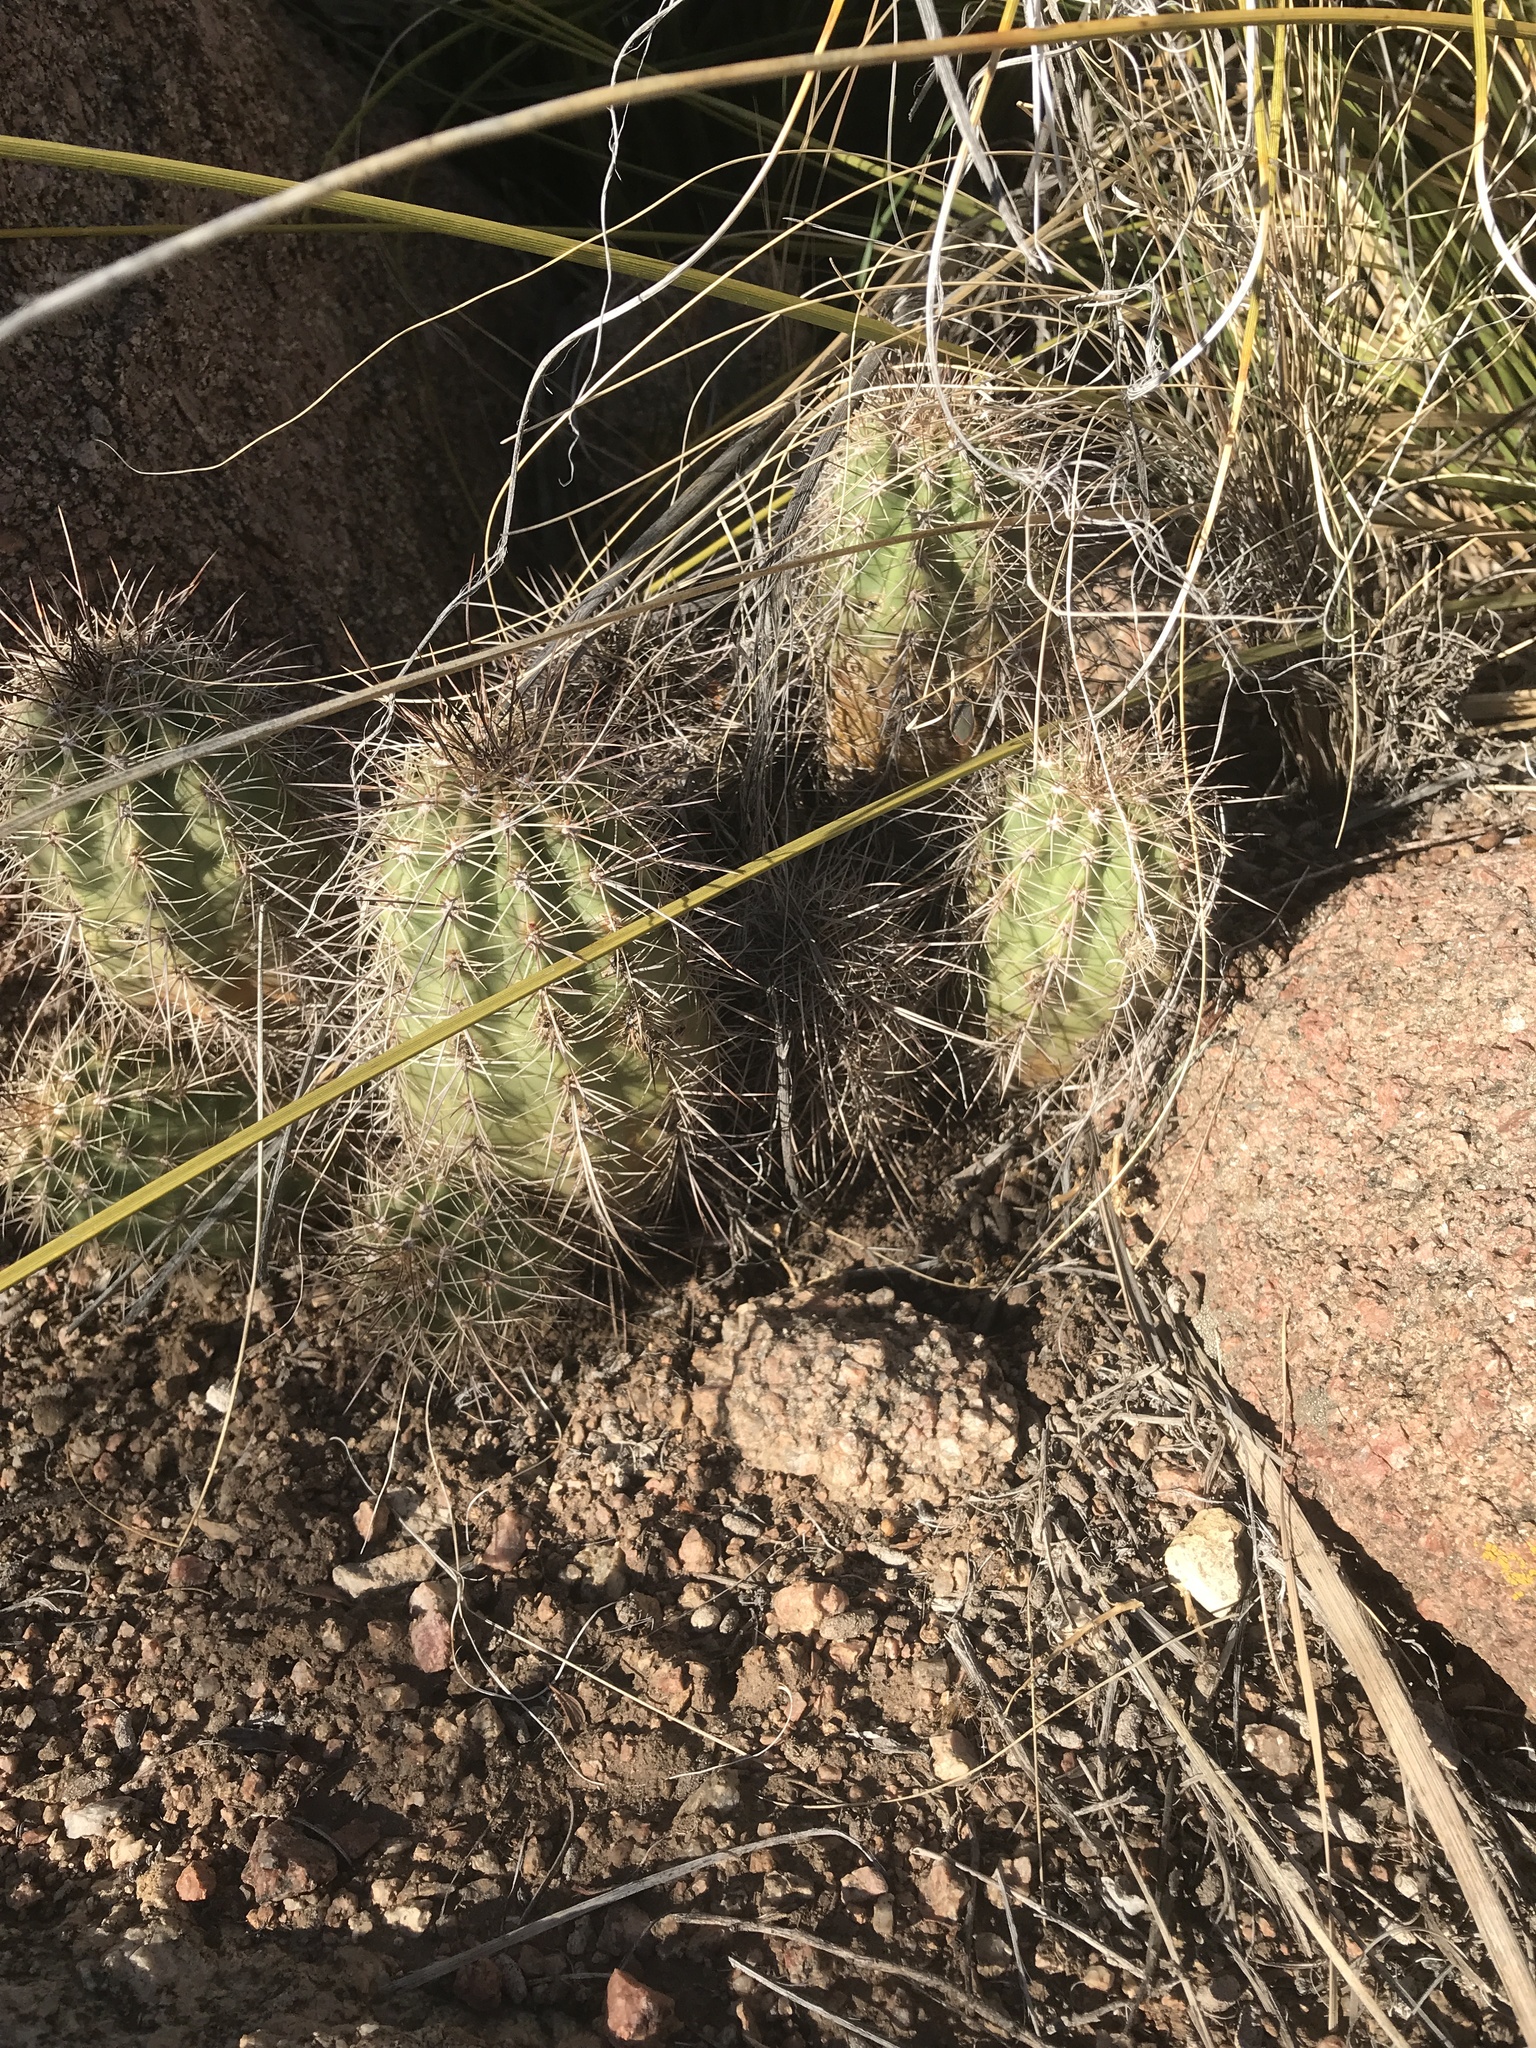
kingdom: Plantae
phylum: Tracheophyta
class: Magnoliopsida
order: Caryophyllales
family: Cactaceae
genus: Echinocereus
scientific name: Echinocereus coccineus
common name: Scarlet hedgehog cactus
